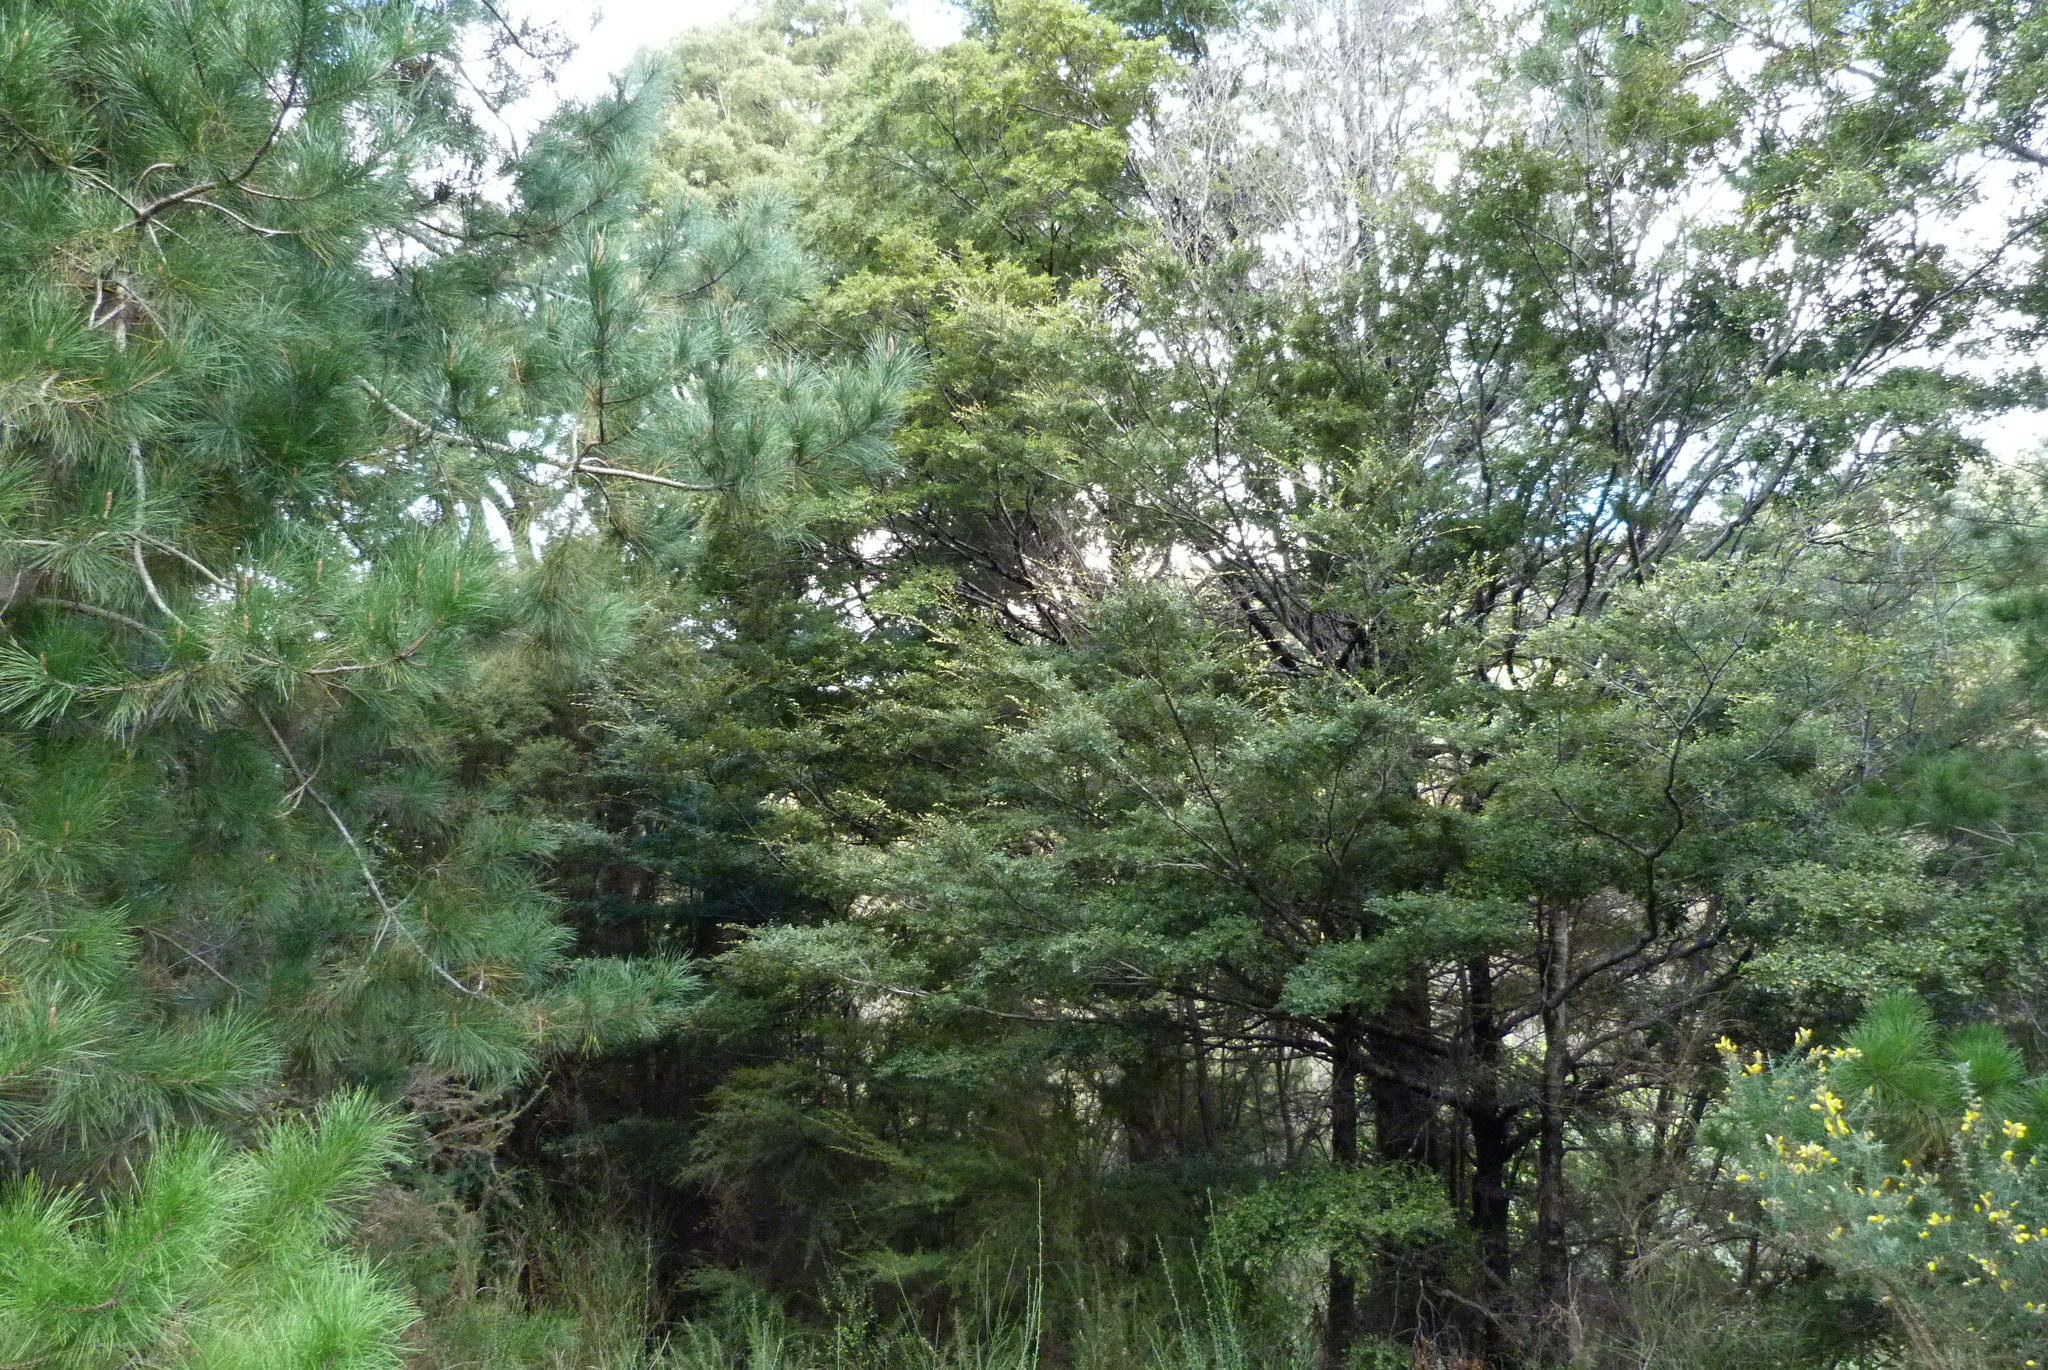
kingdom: Plantae
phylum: Tracheophyta
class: Magnoliopsida
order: Fagales
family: Nothofagaceae
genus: Nothofagus
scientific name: Nothofagus solandri
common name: Black beech
